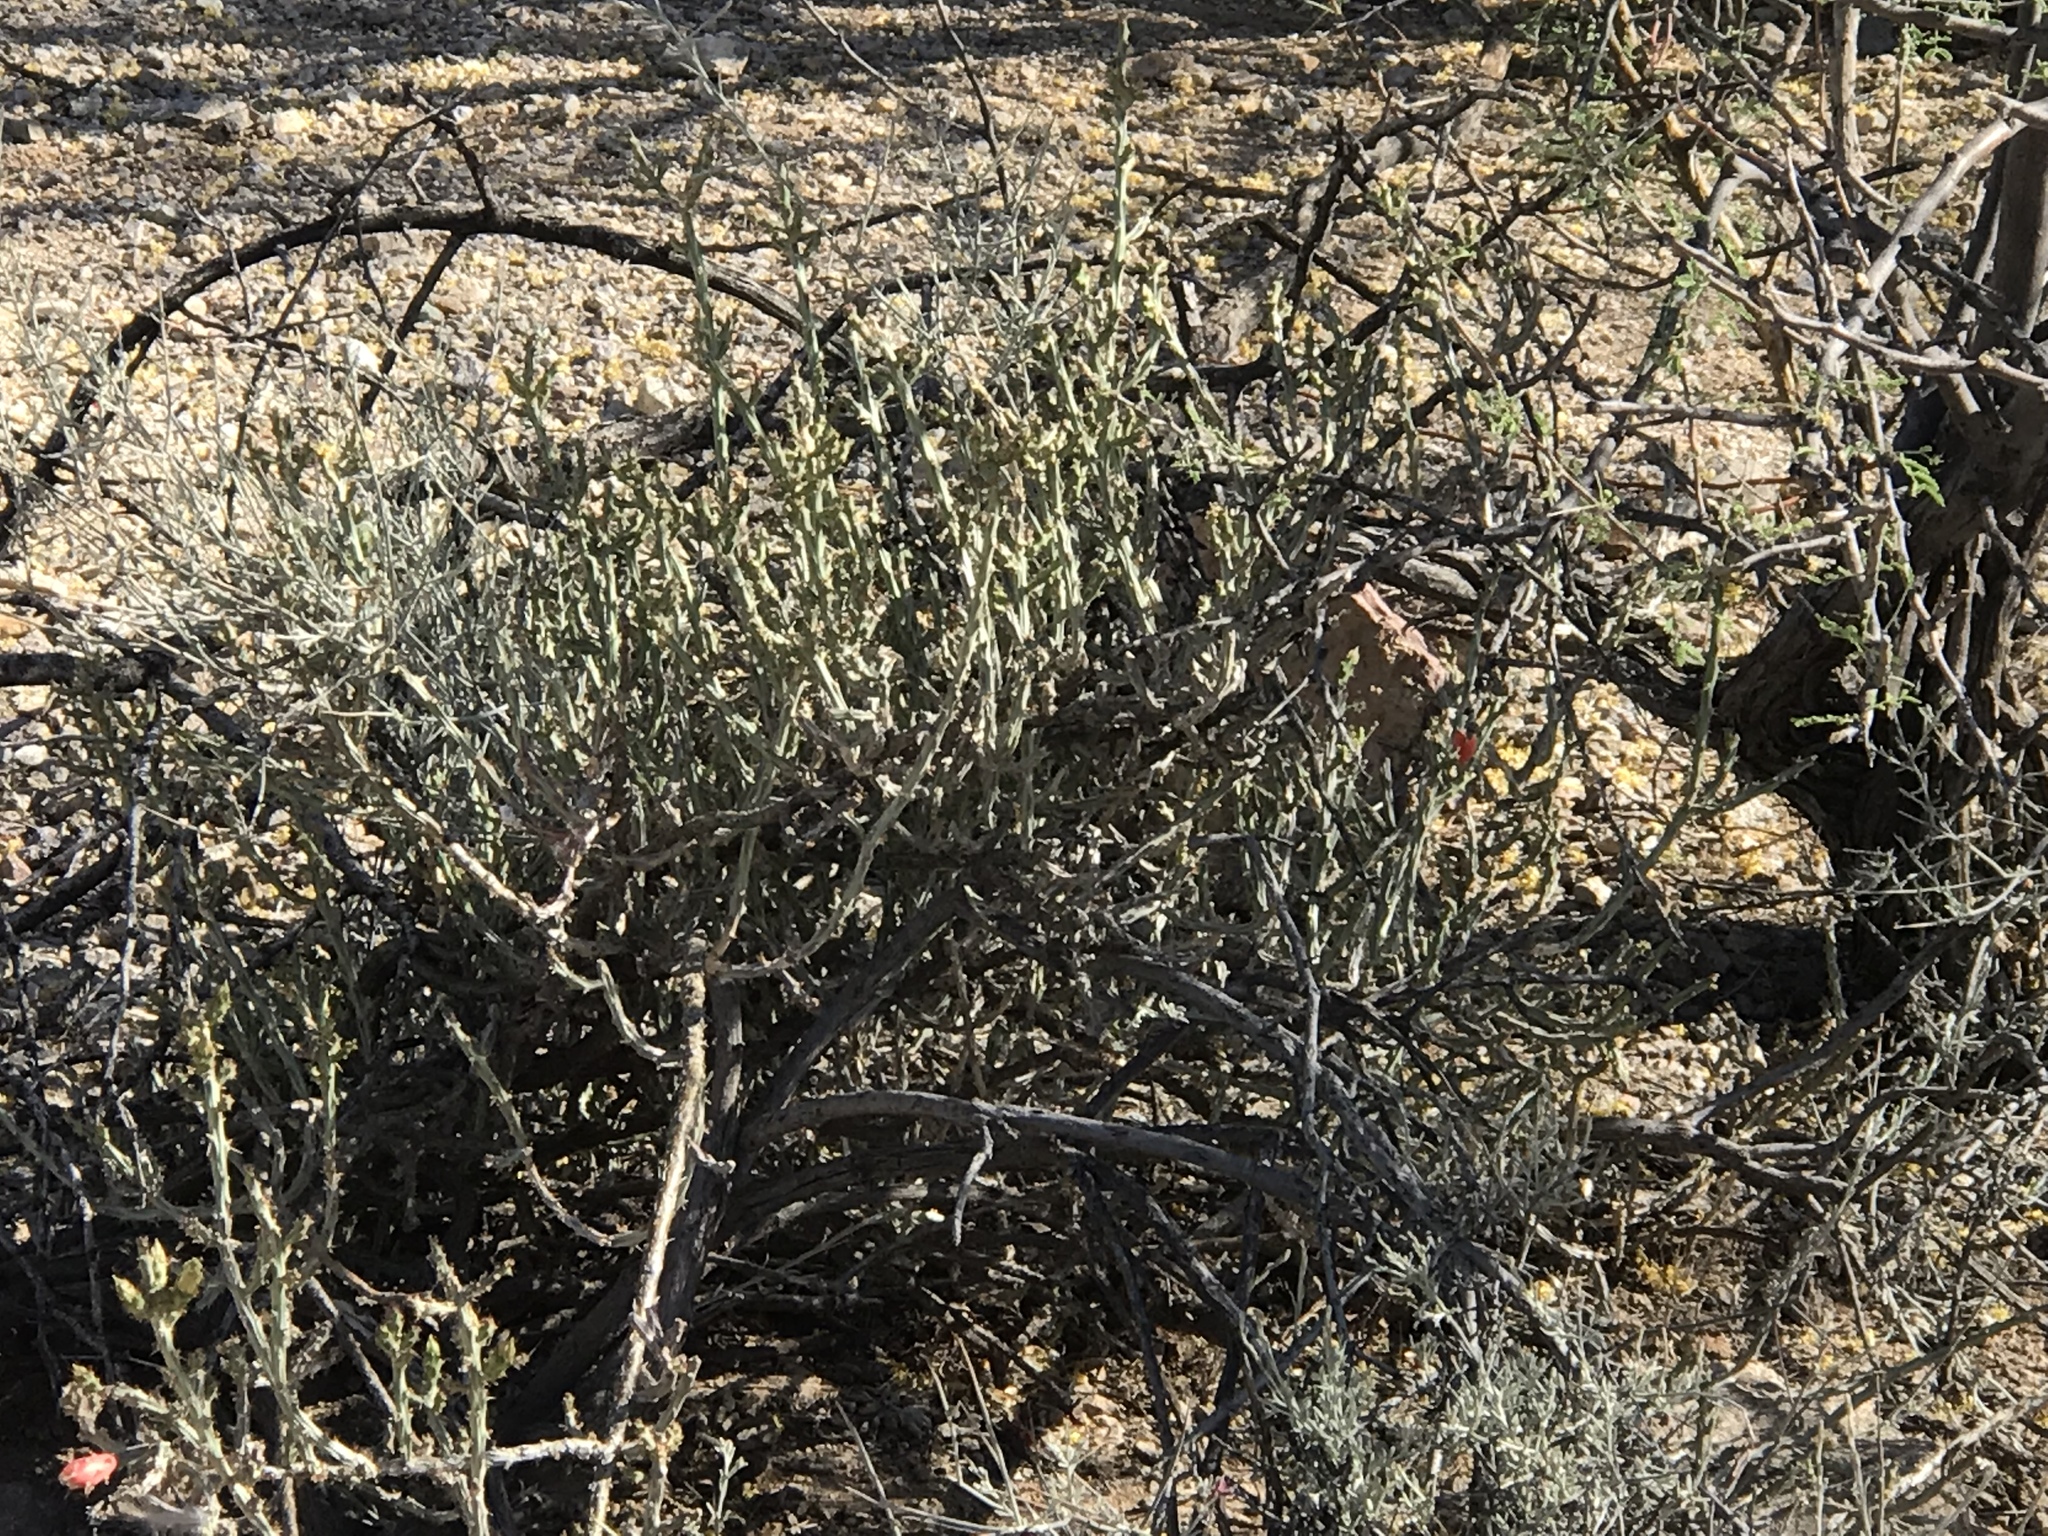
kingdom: Plantae
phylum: Tracheophyta
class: Magnoliopsida
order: Caryophyllales
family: Cactaceae
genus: Cylindropuntia
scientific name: Cylindropuntia leptocaulis
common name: Christmas cactus
